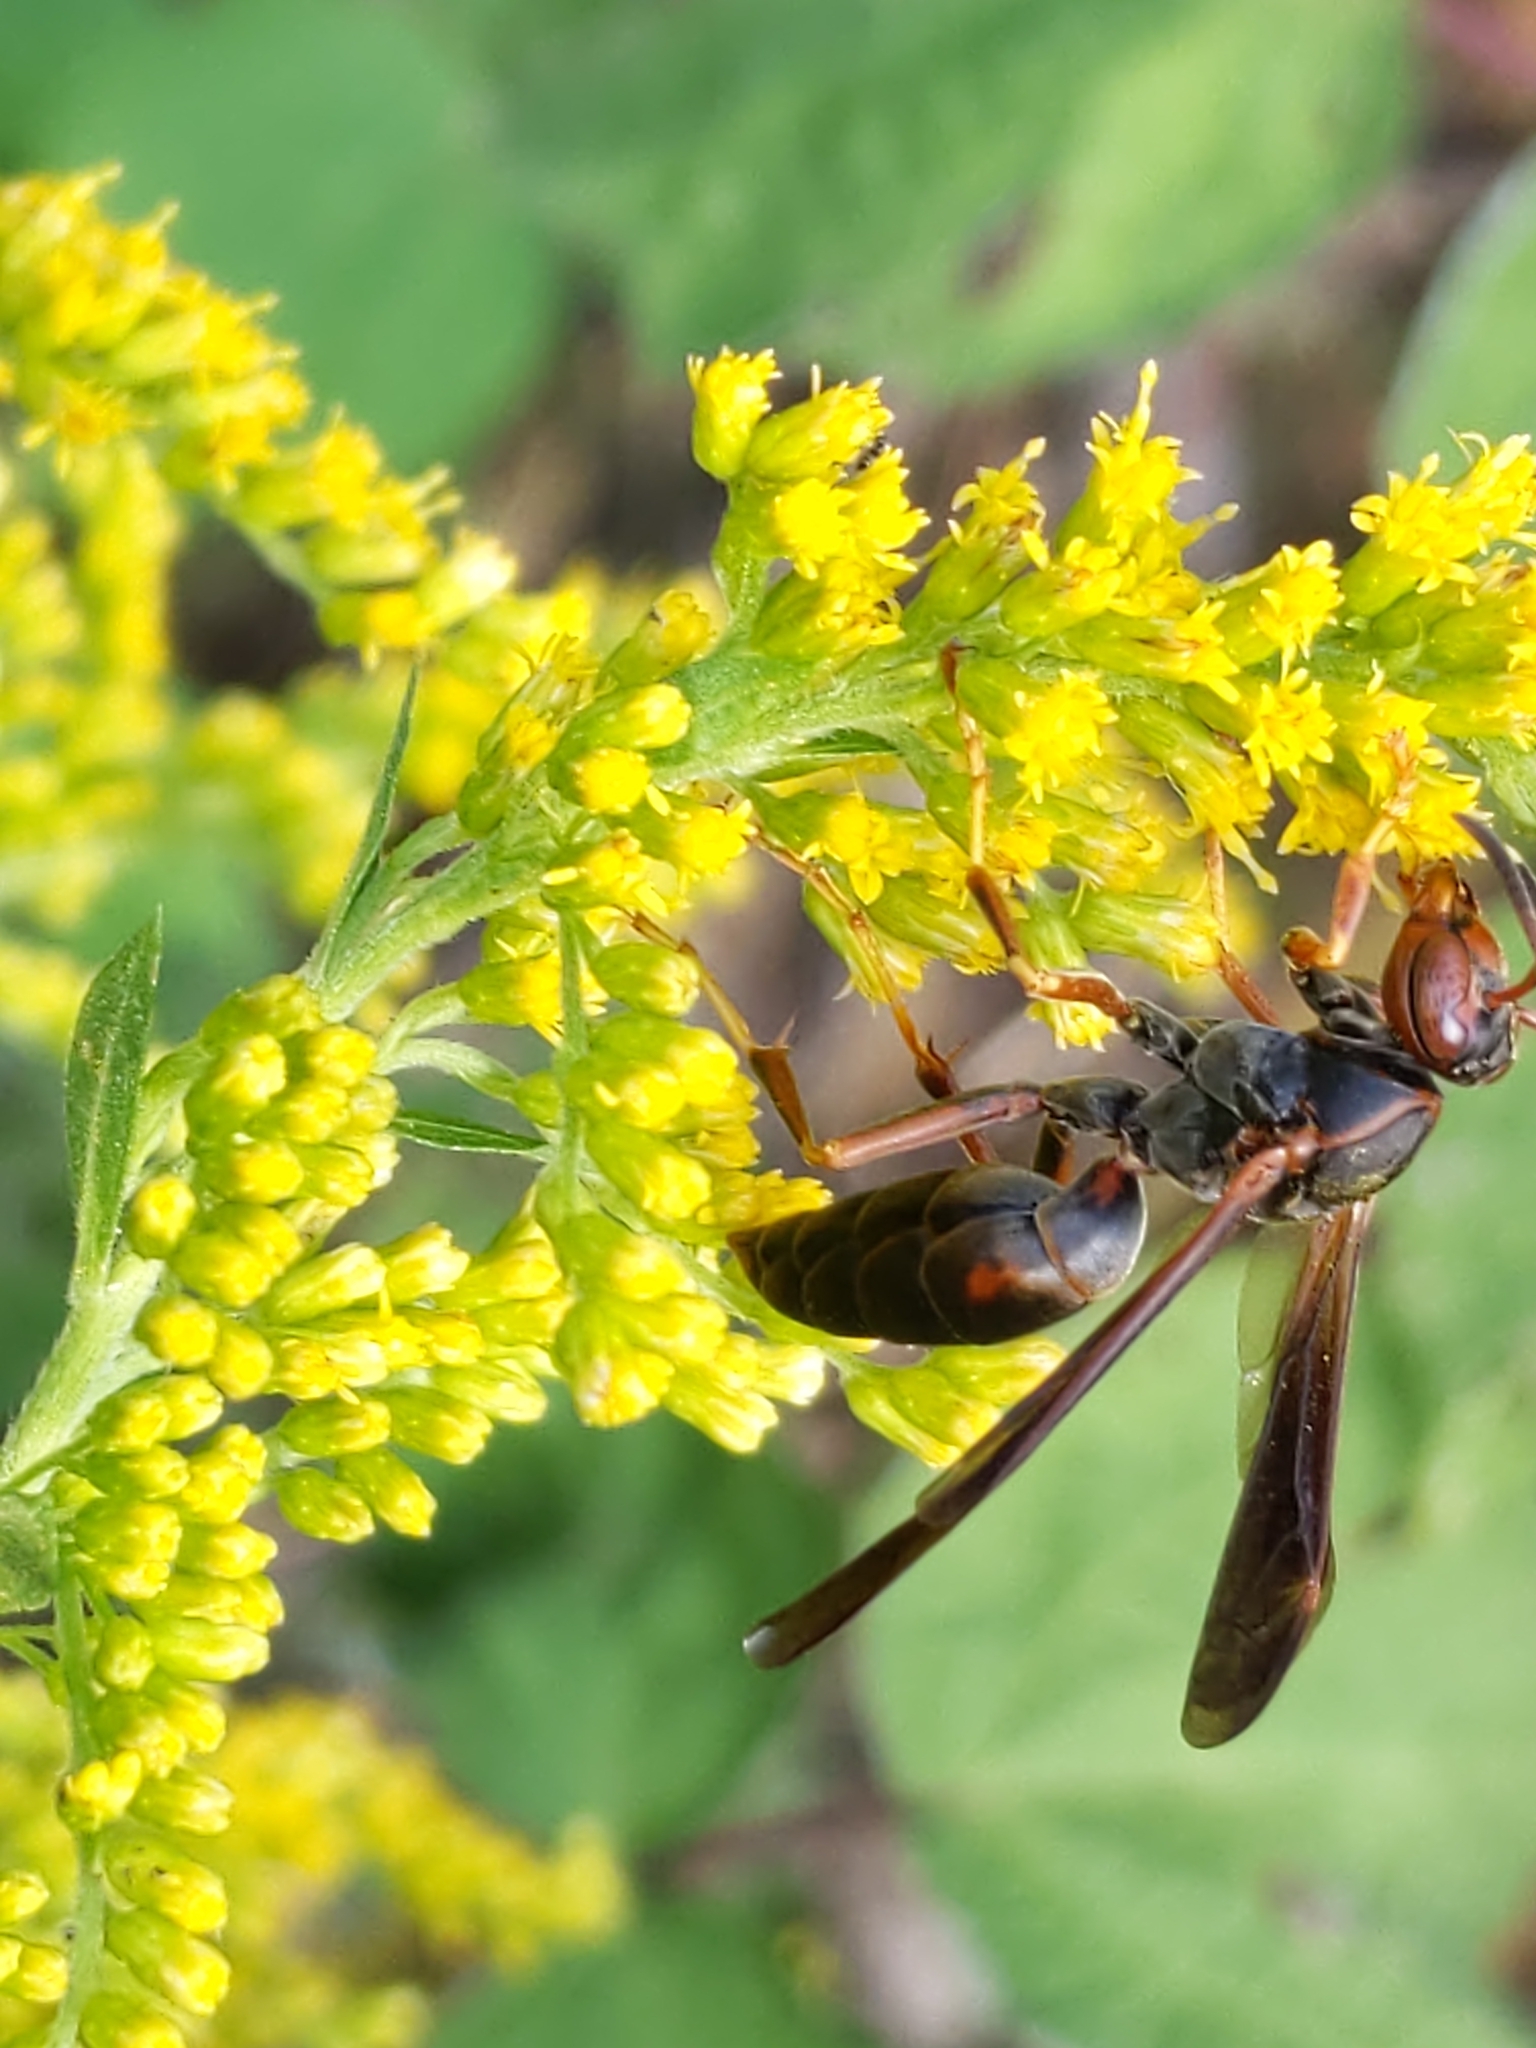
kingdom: Animalia
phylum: Arthropoda
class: Insecta
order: Hymenoptera
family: Vespidae
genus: Fuscopolistes
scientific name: Fuscopolistes
